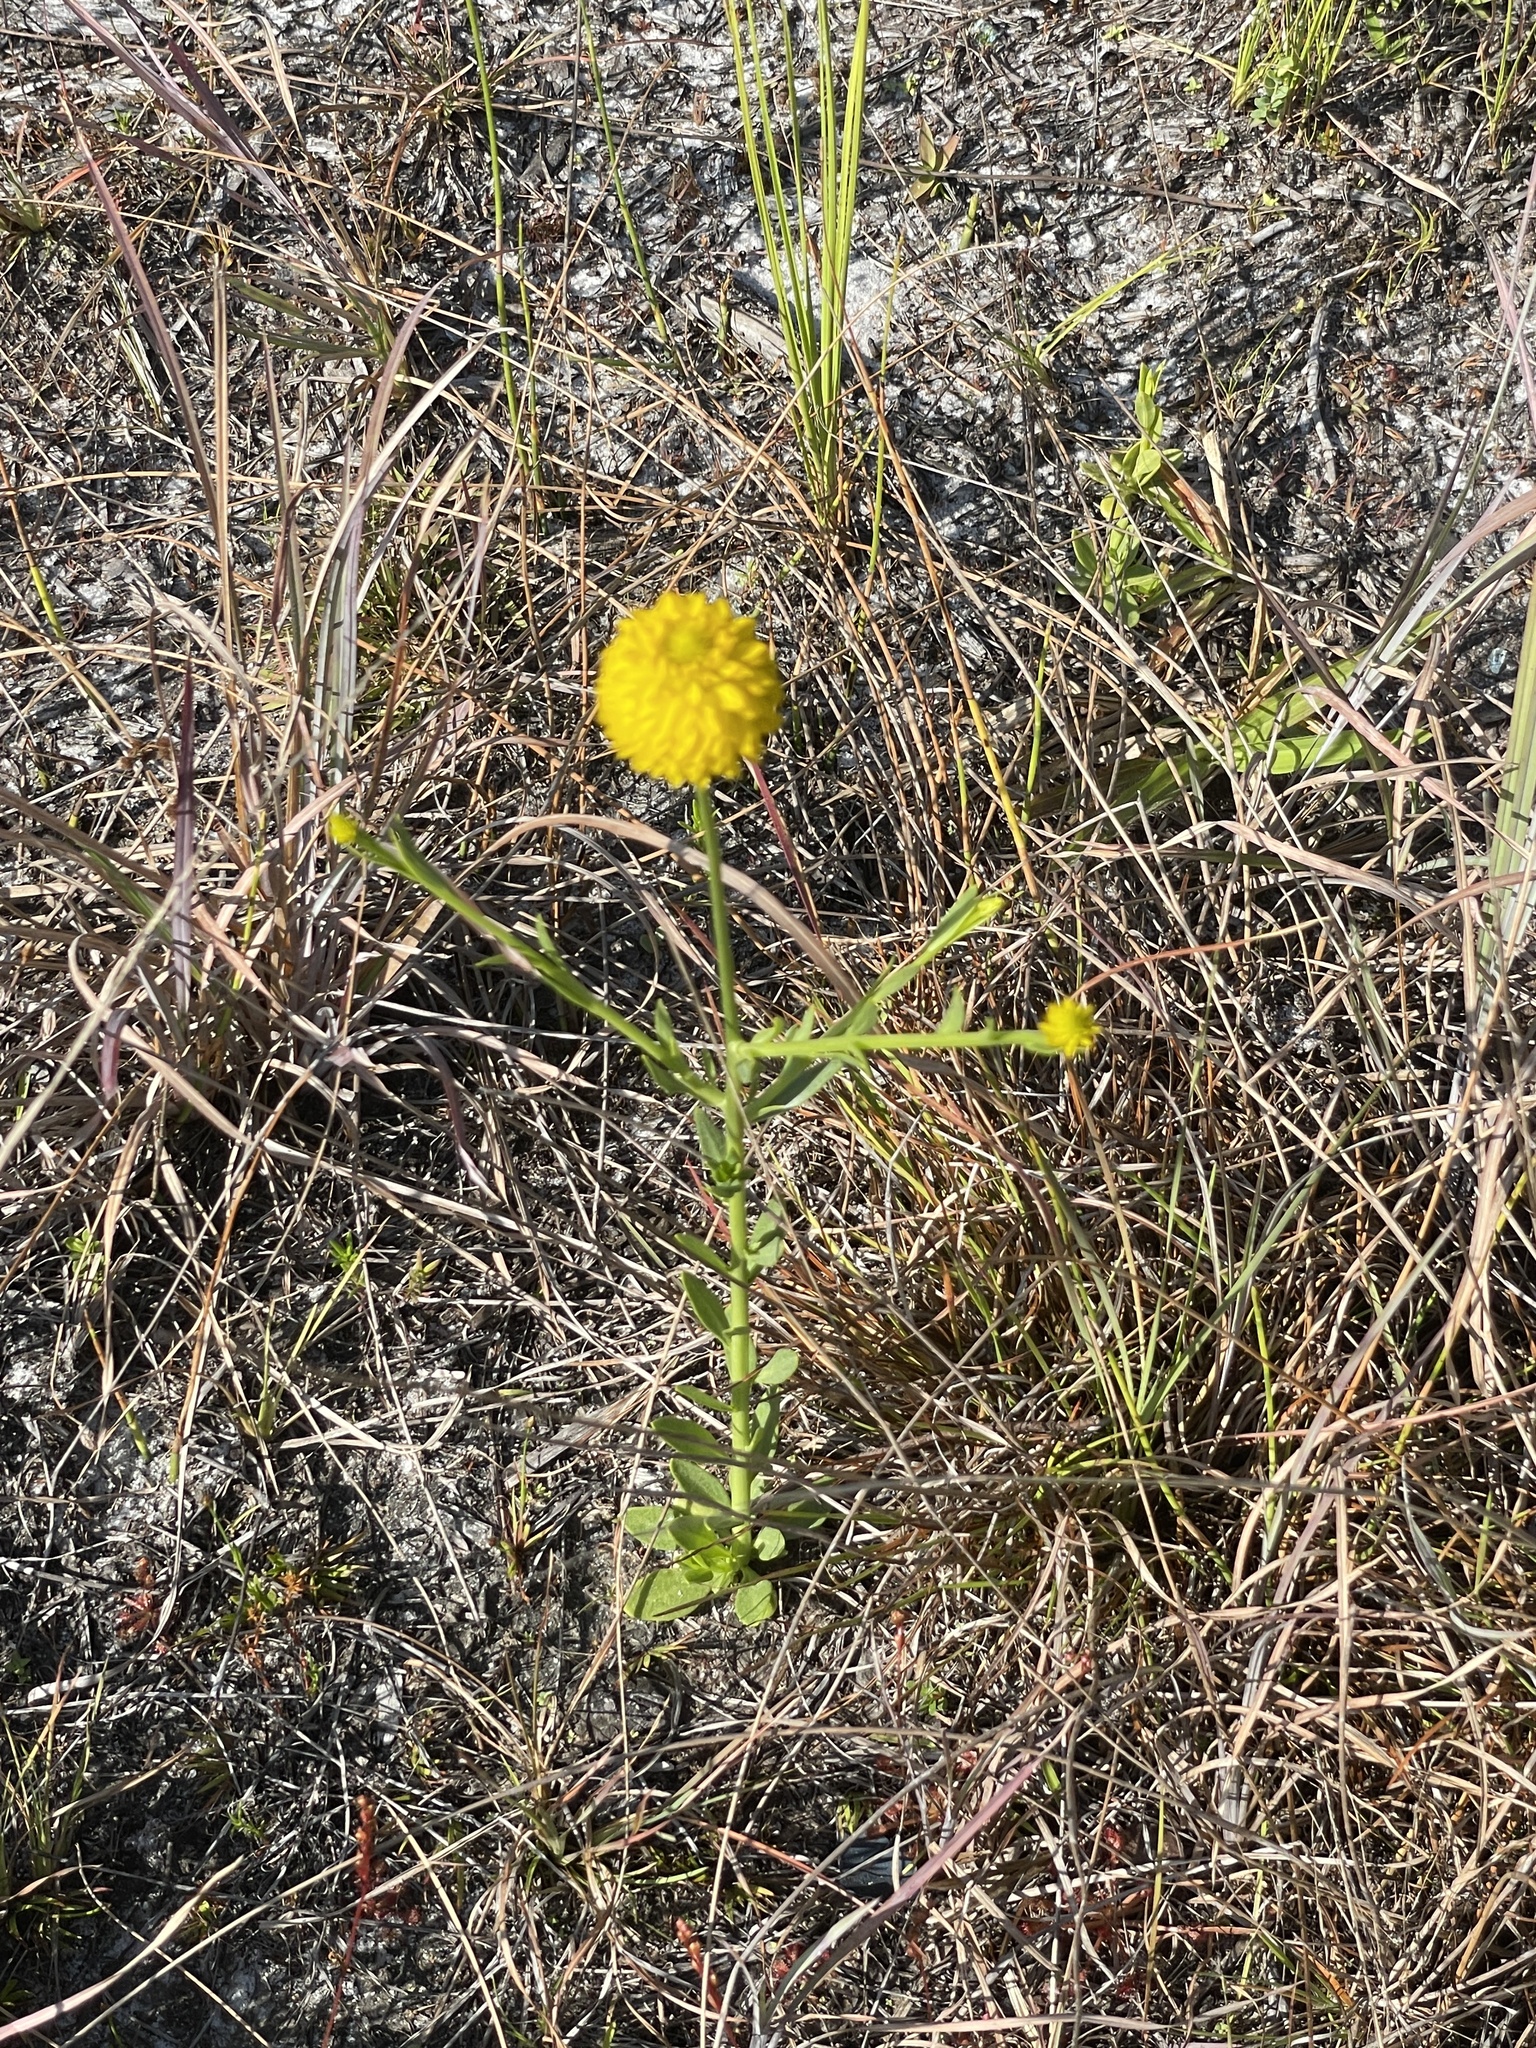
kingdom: Plantae
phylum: Tracheophyta
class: Magnoliopsida
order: Fabales
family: Polygalaceae
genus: Polygala
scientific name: Polygala rugelii
